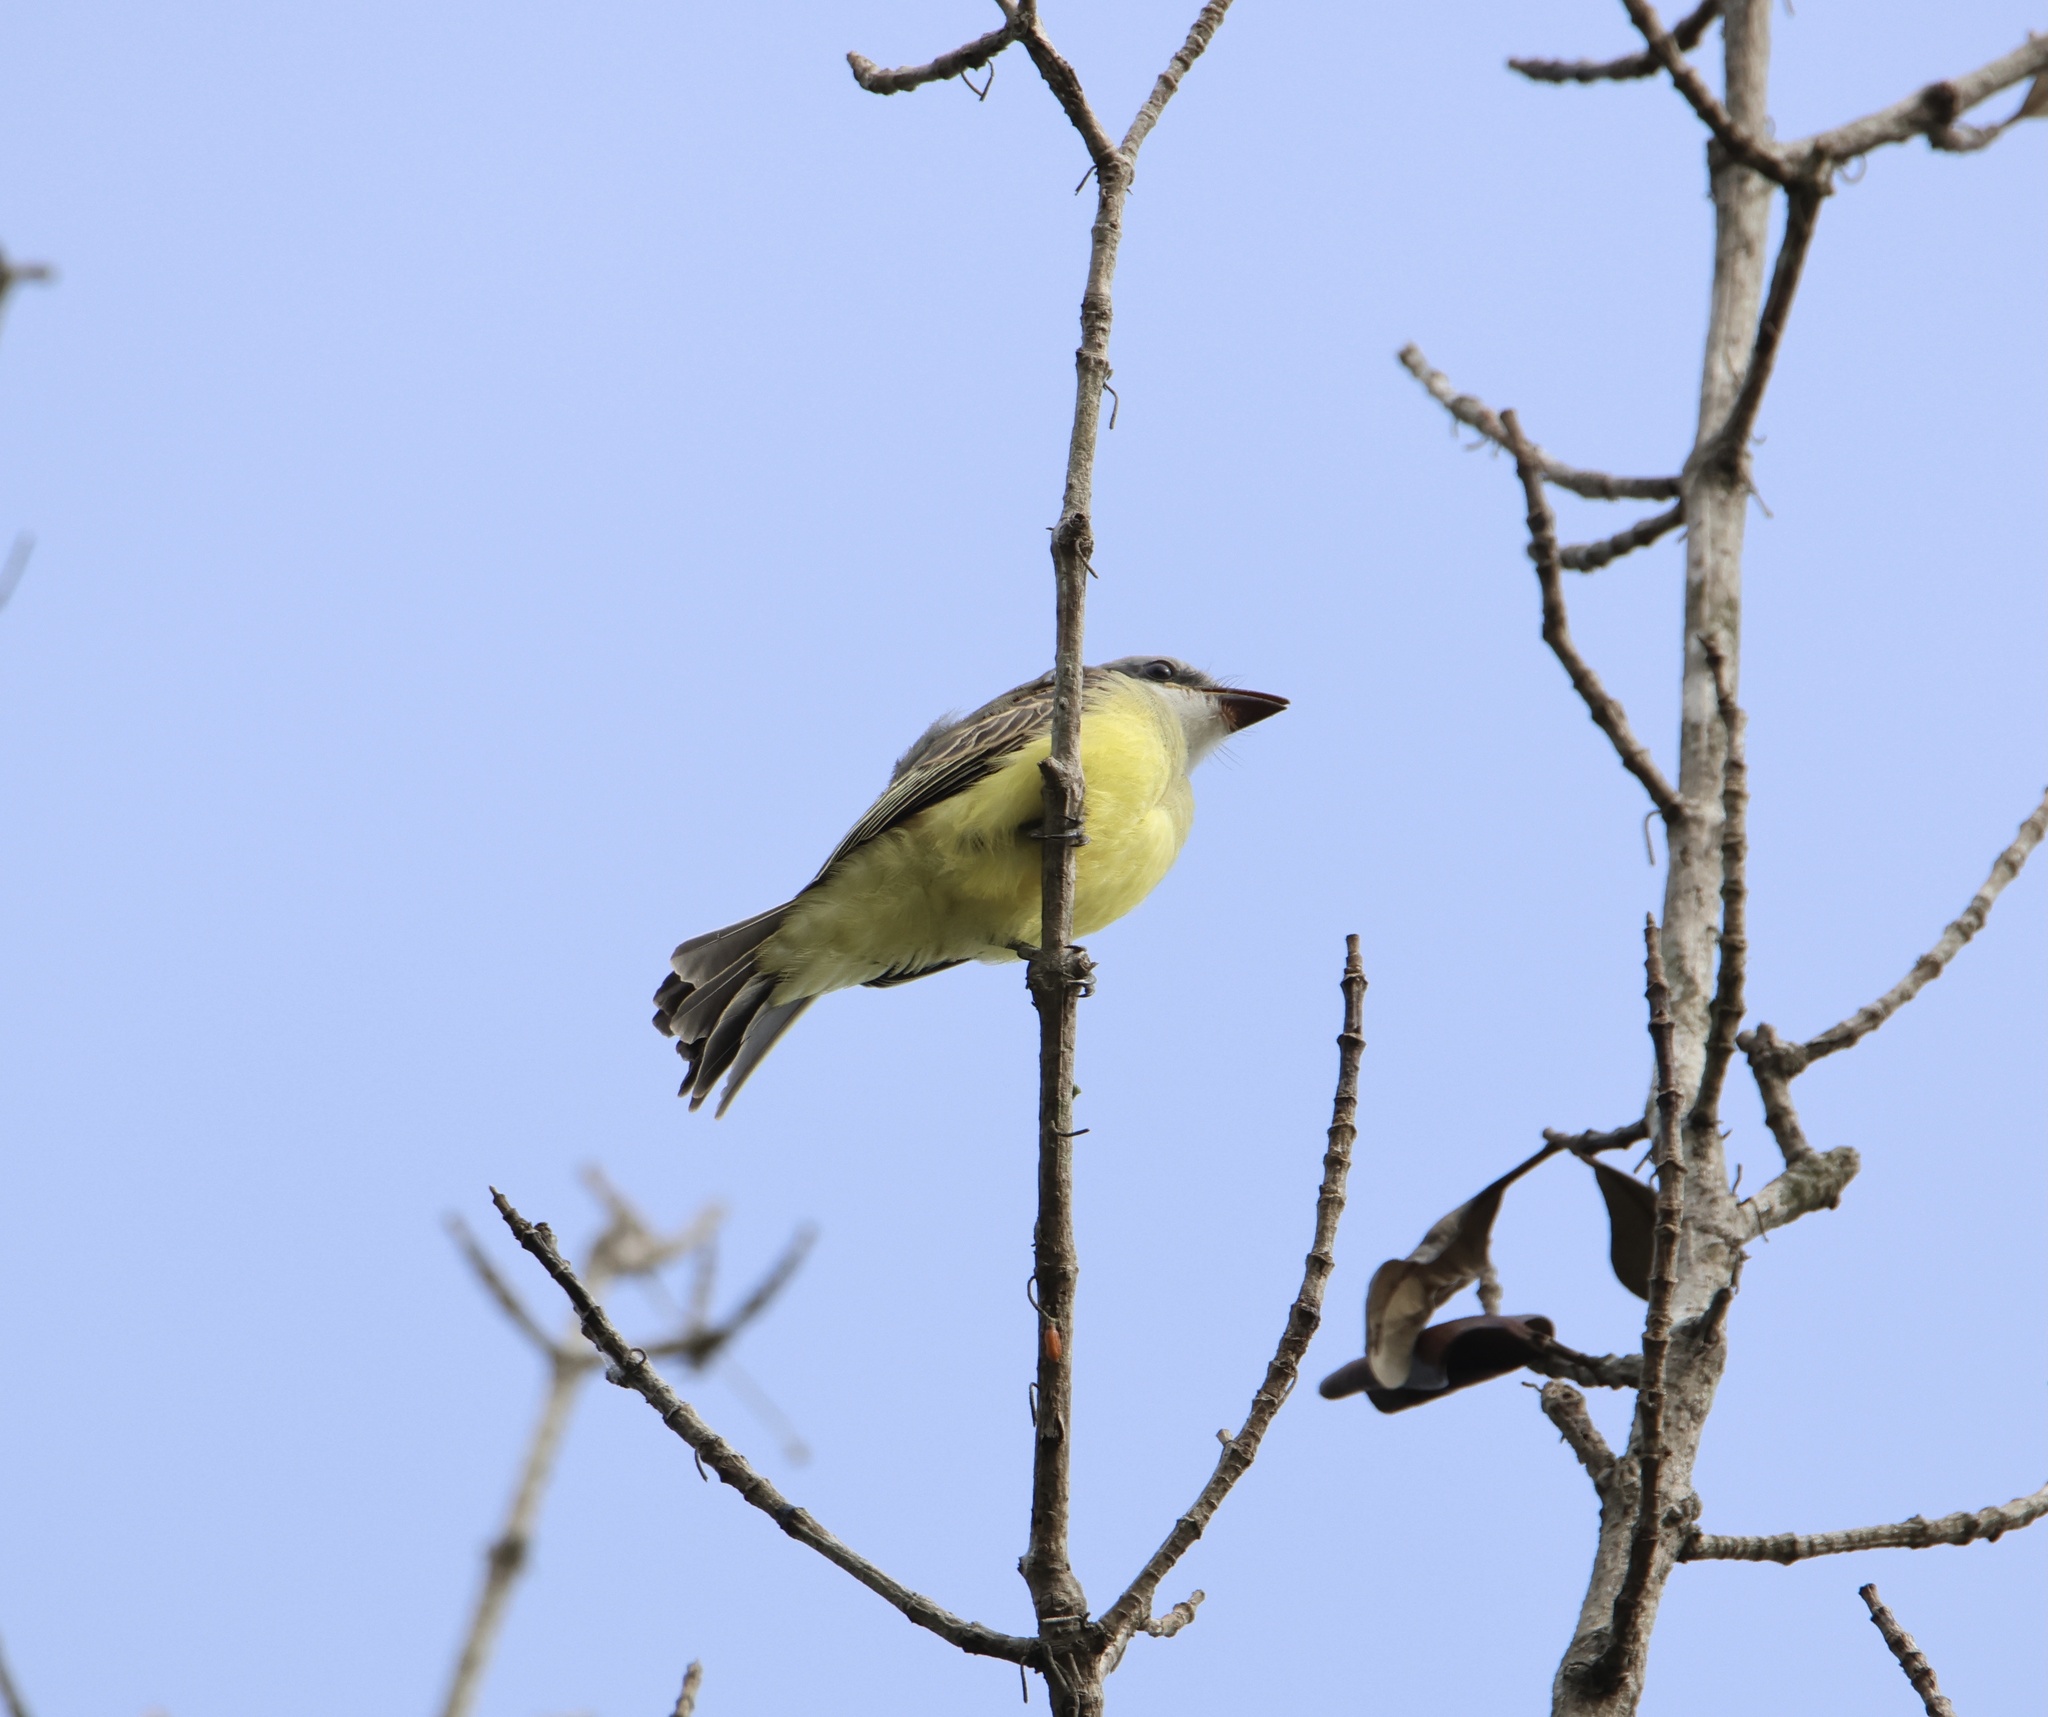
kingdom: Animalia
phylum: Chordata
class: Aves
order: Passeriformes
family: Tyrannidae
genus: Tyrannus
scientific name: Tyrannus melancholicus
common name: Tropical kingbird
